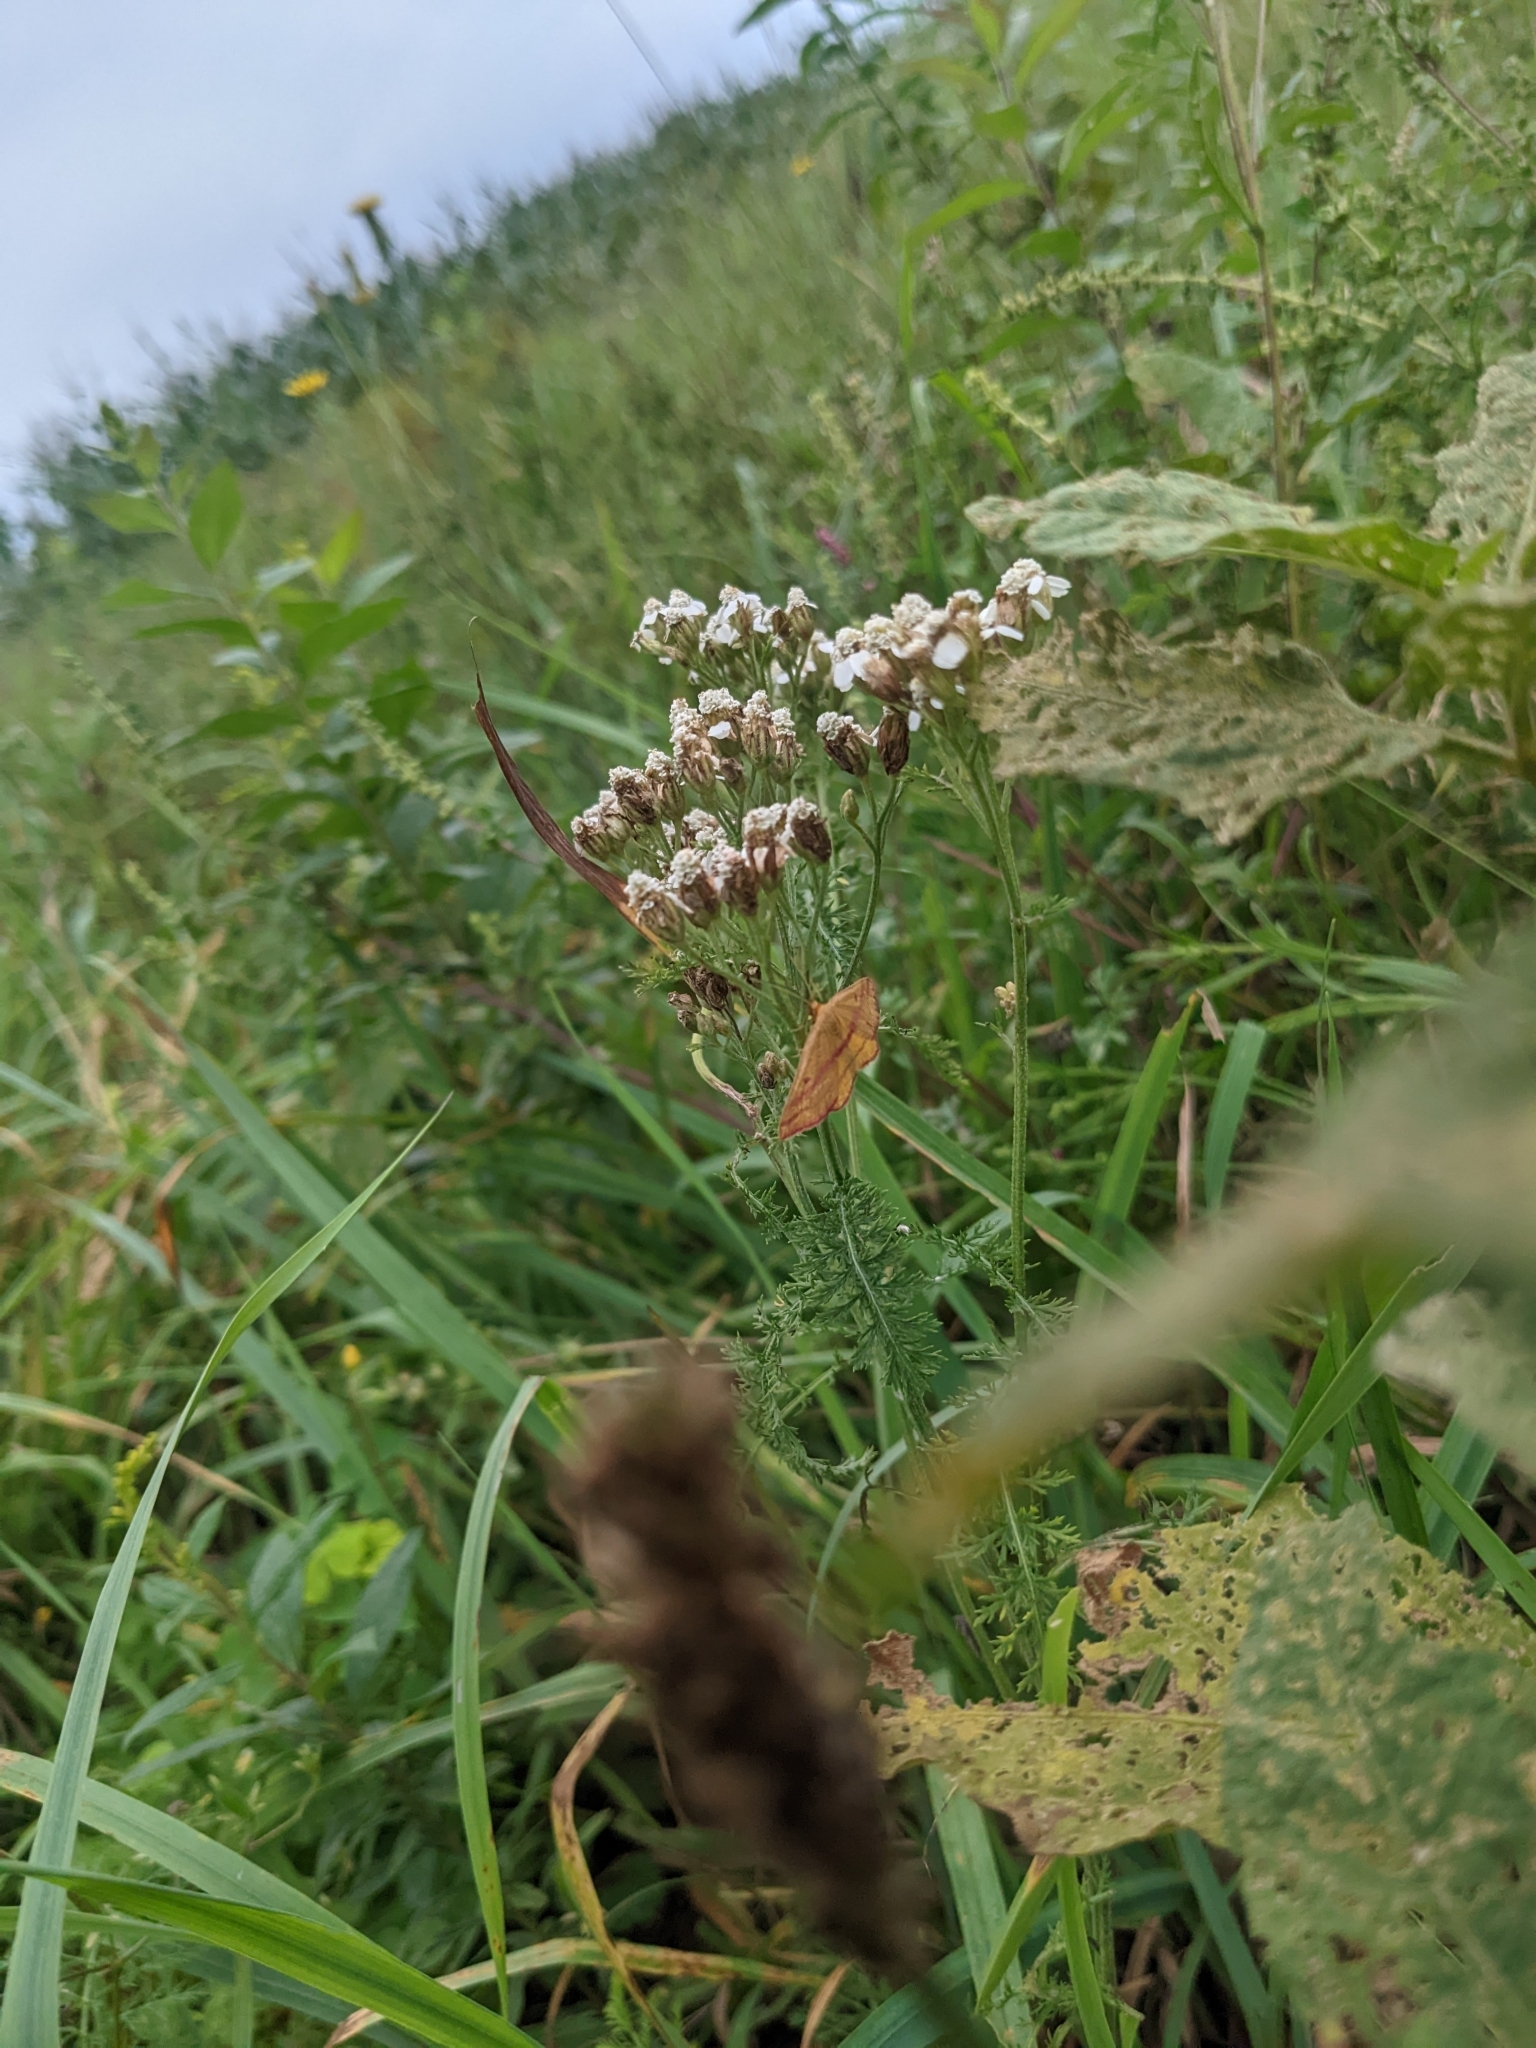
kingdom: Animalia
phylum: Arthropoda
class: Insecta
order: Lepidoptera
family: Geometridae
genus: Haematopis
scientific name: Haematopis grataria
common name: Chickweed geometer
